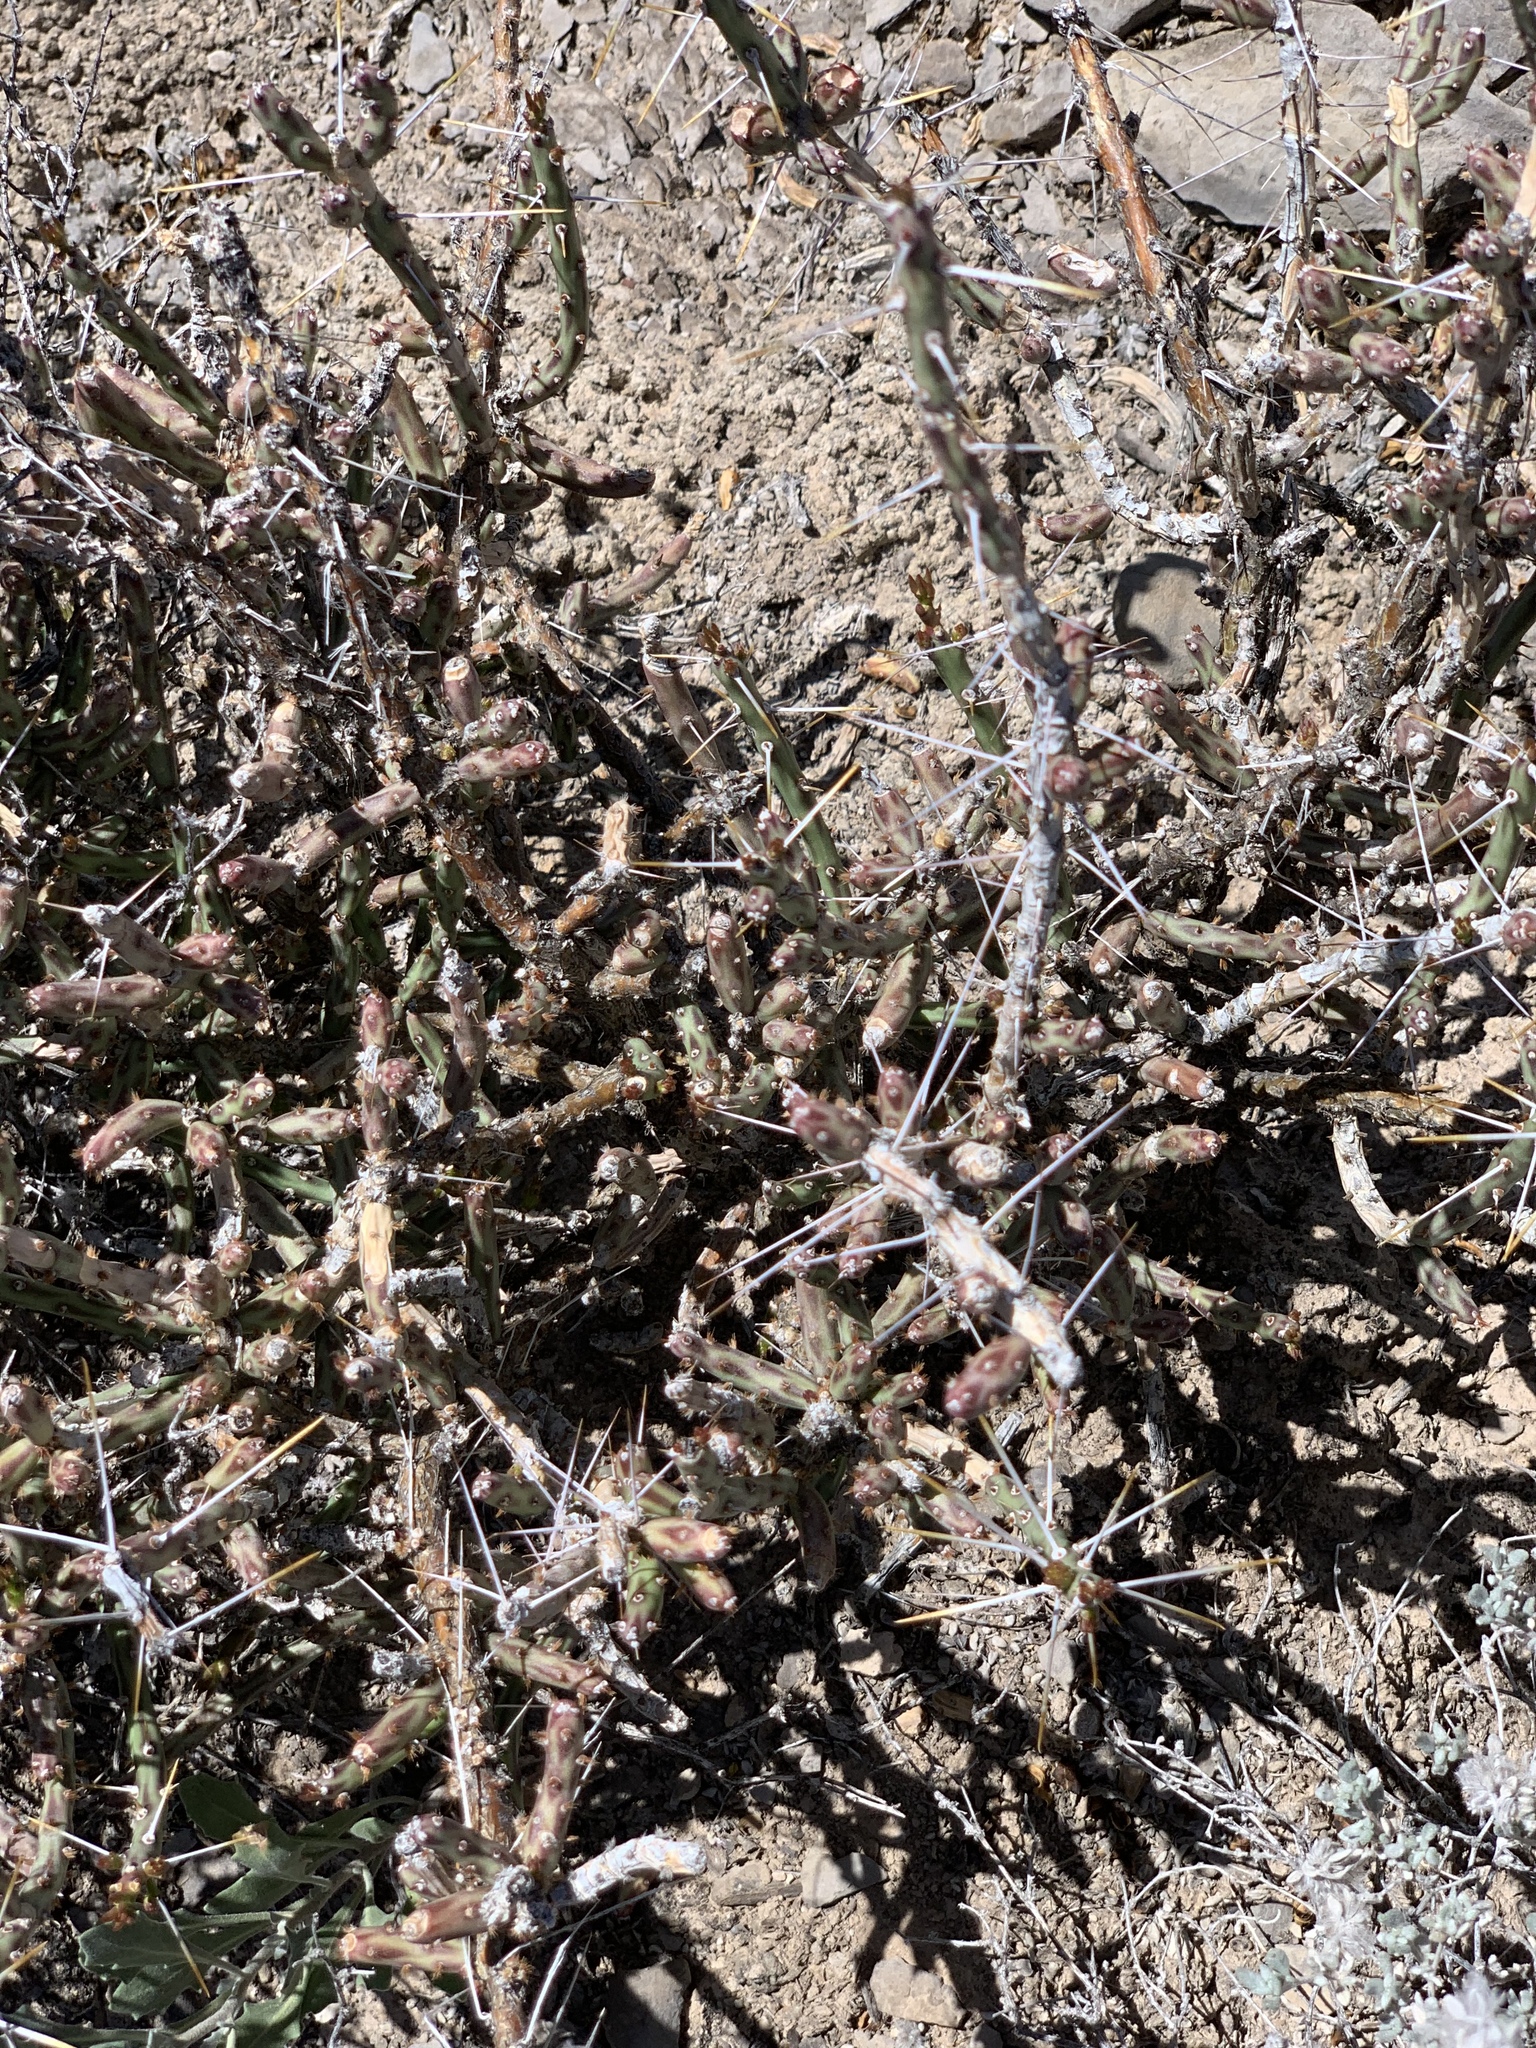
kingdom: Plantae
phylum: Tracheophyta
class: Magnoliopsida
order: Caryophyllales
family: Cactaceae
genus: Cylindropuntia
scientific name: Cylindropuntia leptocaulis
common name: Christmas cactus
